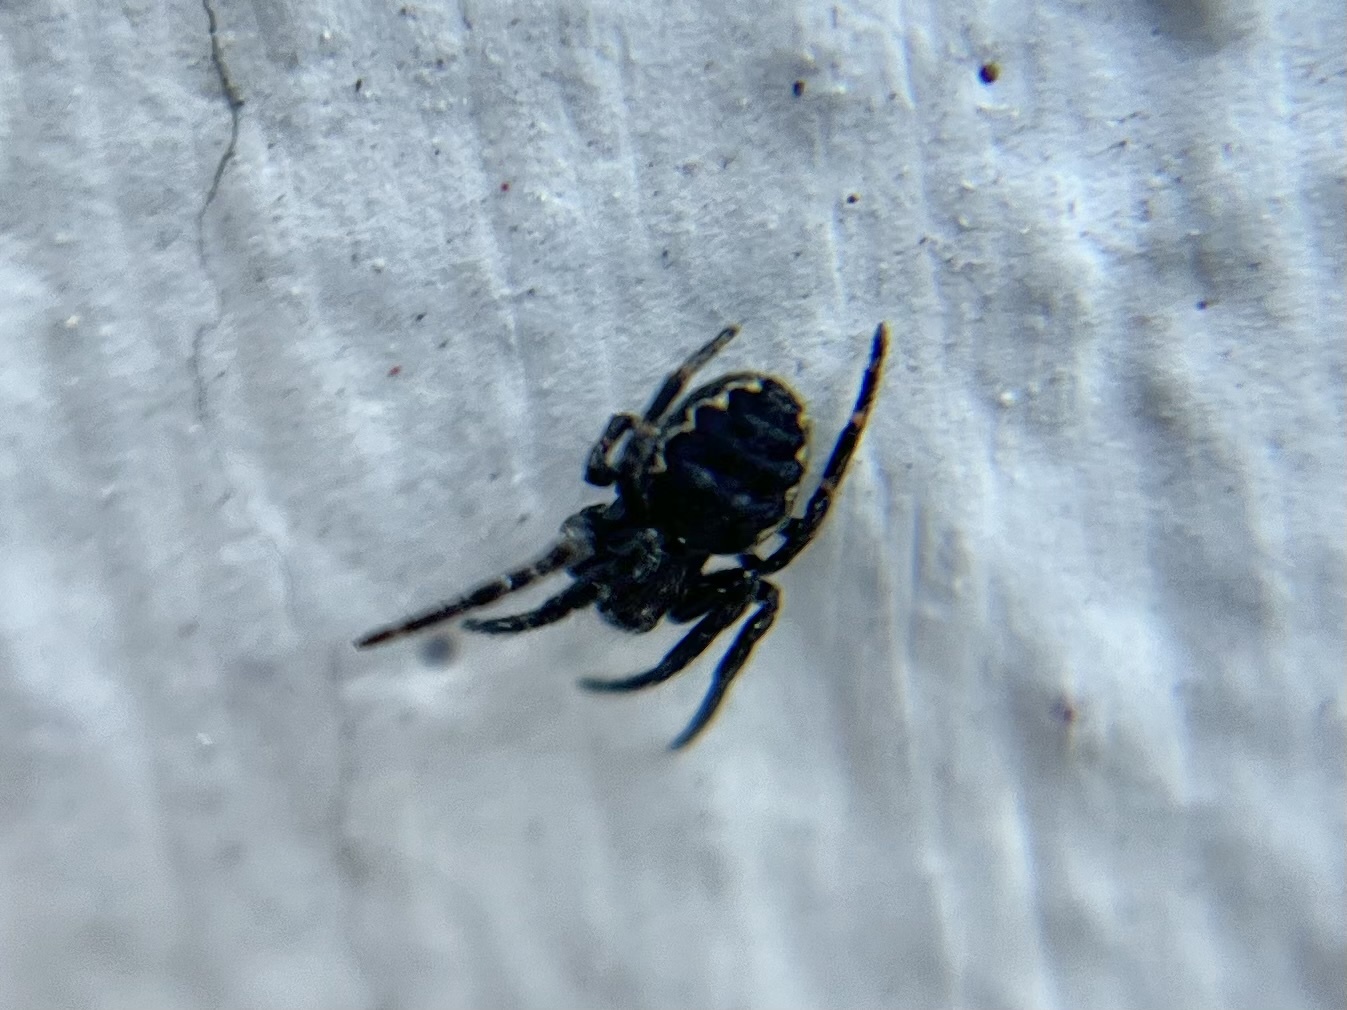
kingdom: Animalia
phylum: Arthropoda
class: Arachnida
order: Araneae
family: Araneidae
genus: Nuctenea
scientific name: Nuctenea umbratica
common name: Toad spider
